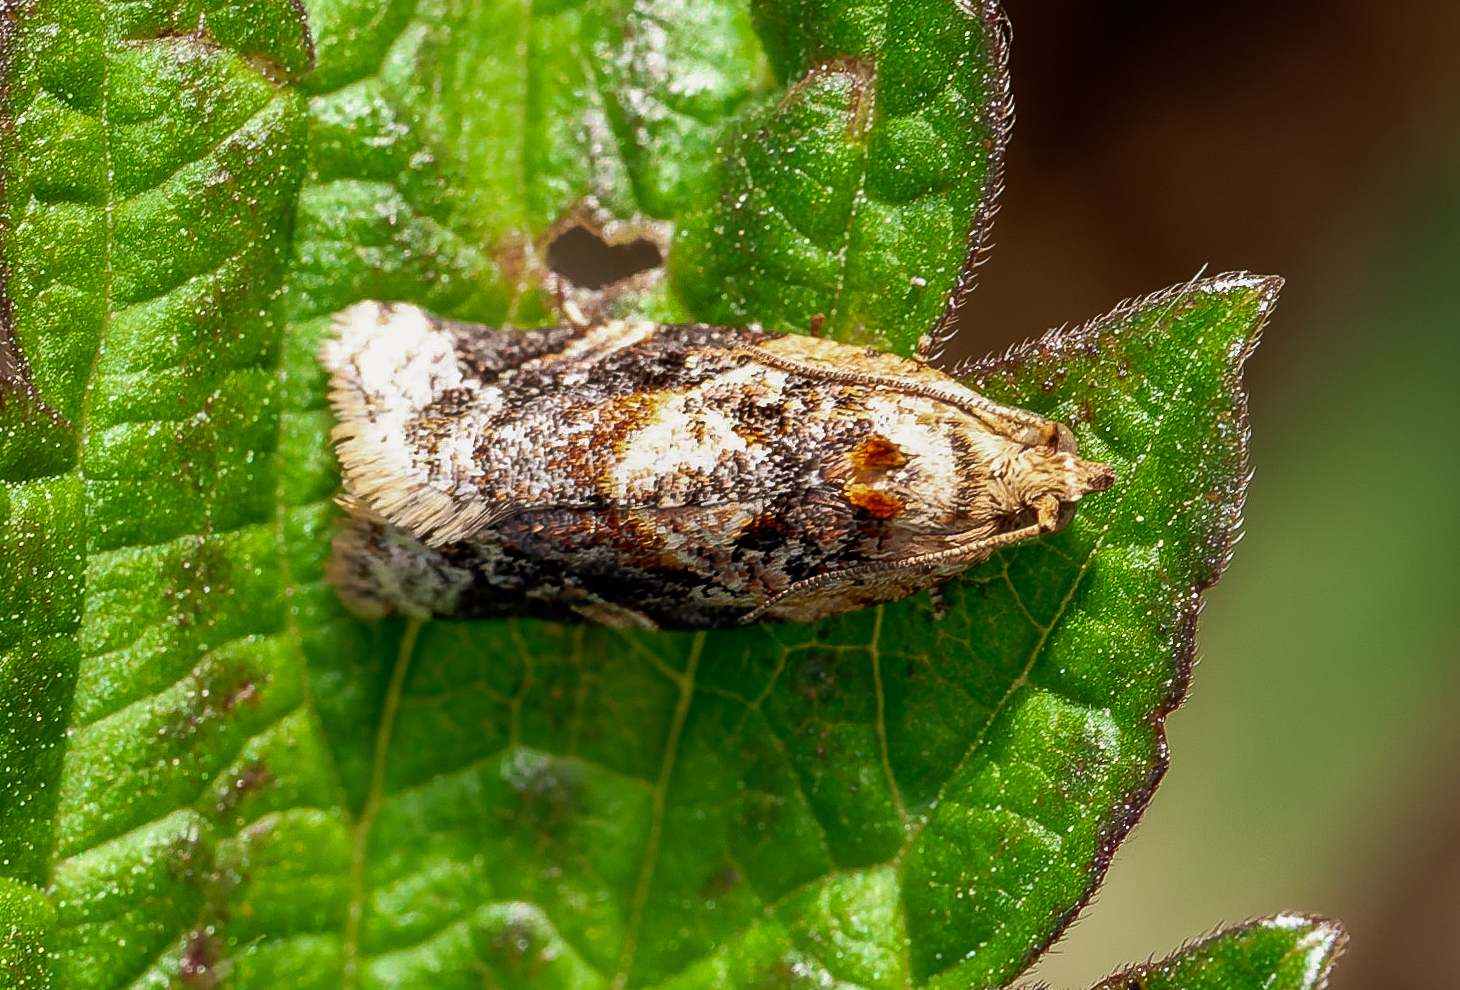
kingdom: Animalia
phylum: Arthropoda
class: Insecta
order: Lepidoptera
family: Tortricidae
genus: Argyrotaenia
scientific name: Argyrotaenia velutinana
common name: Red-banded leafroller moth
